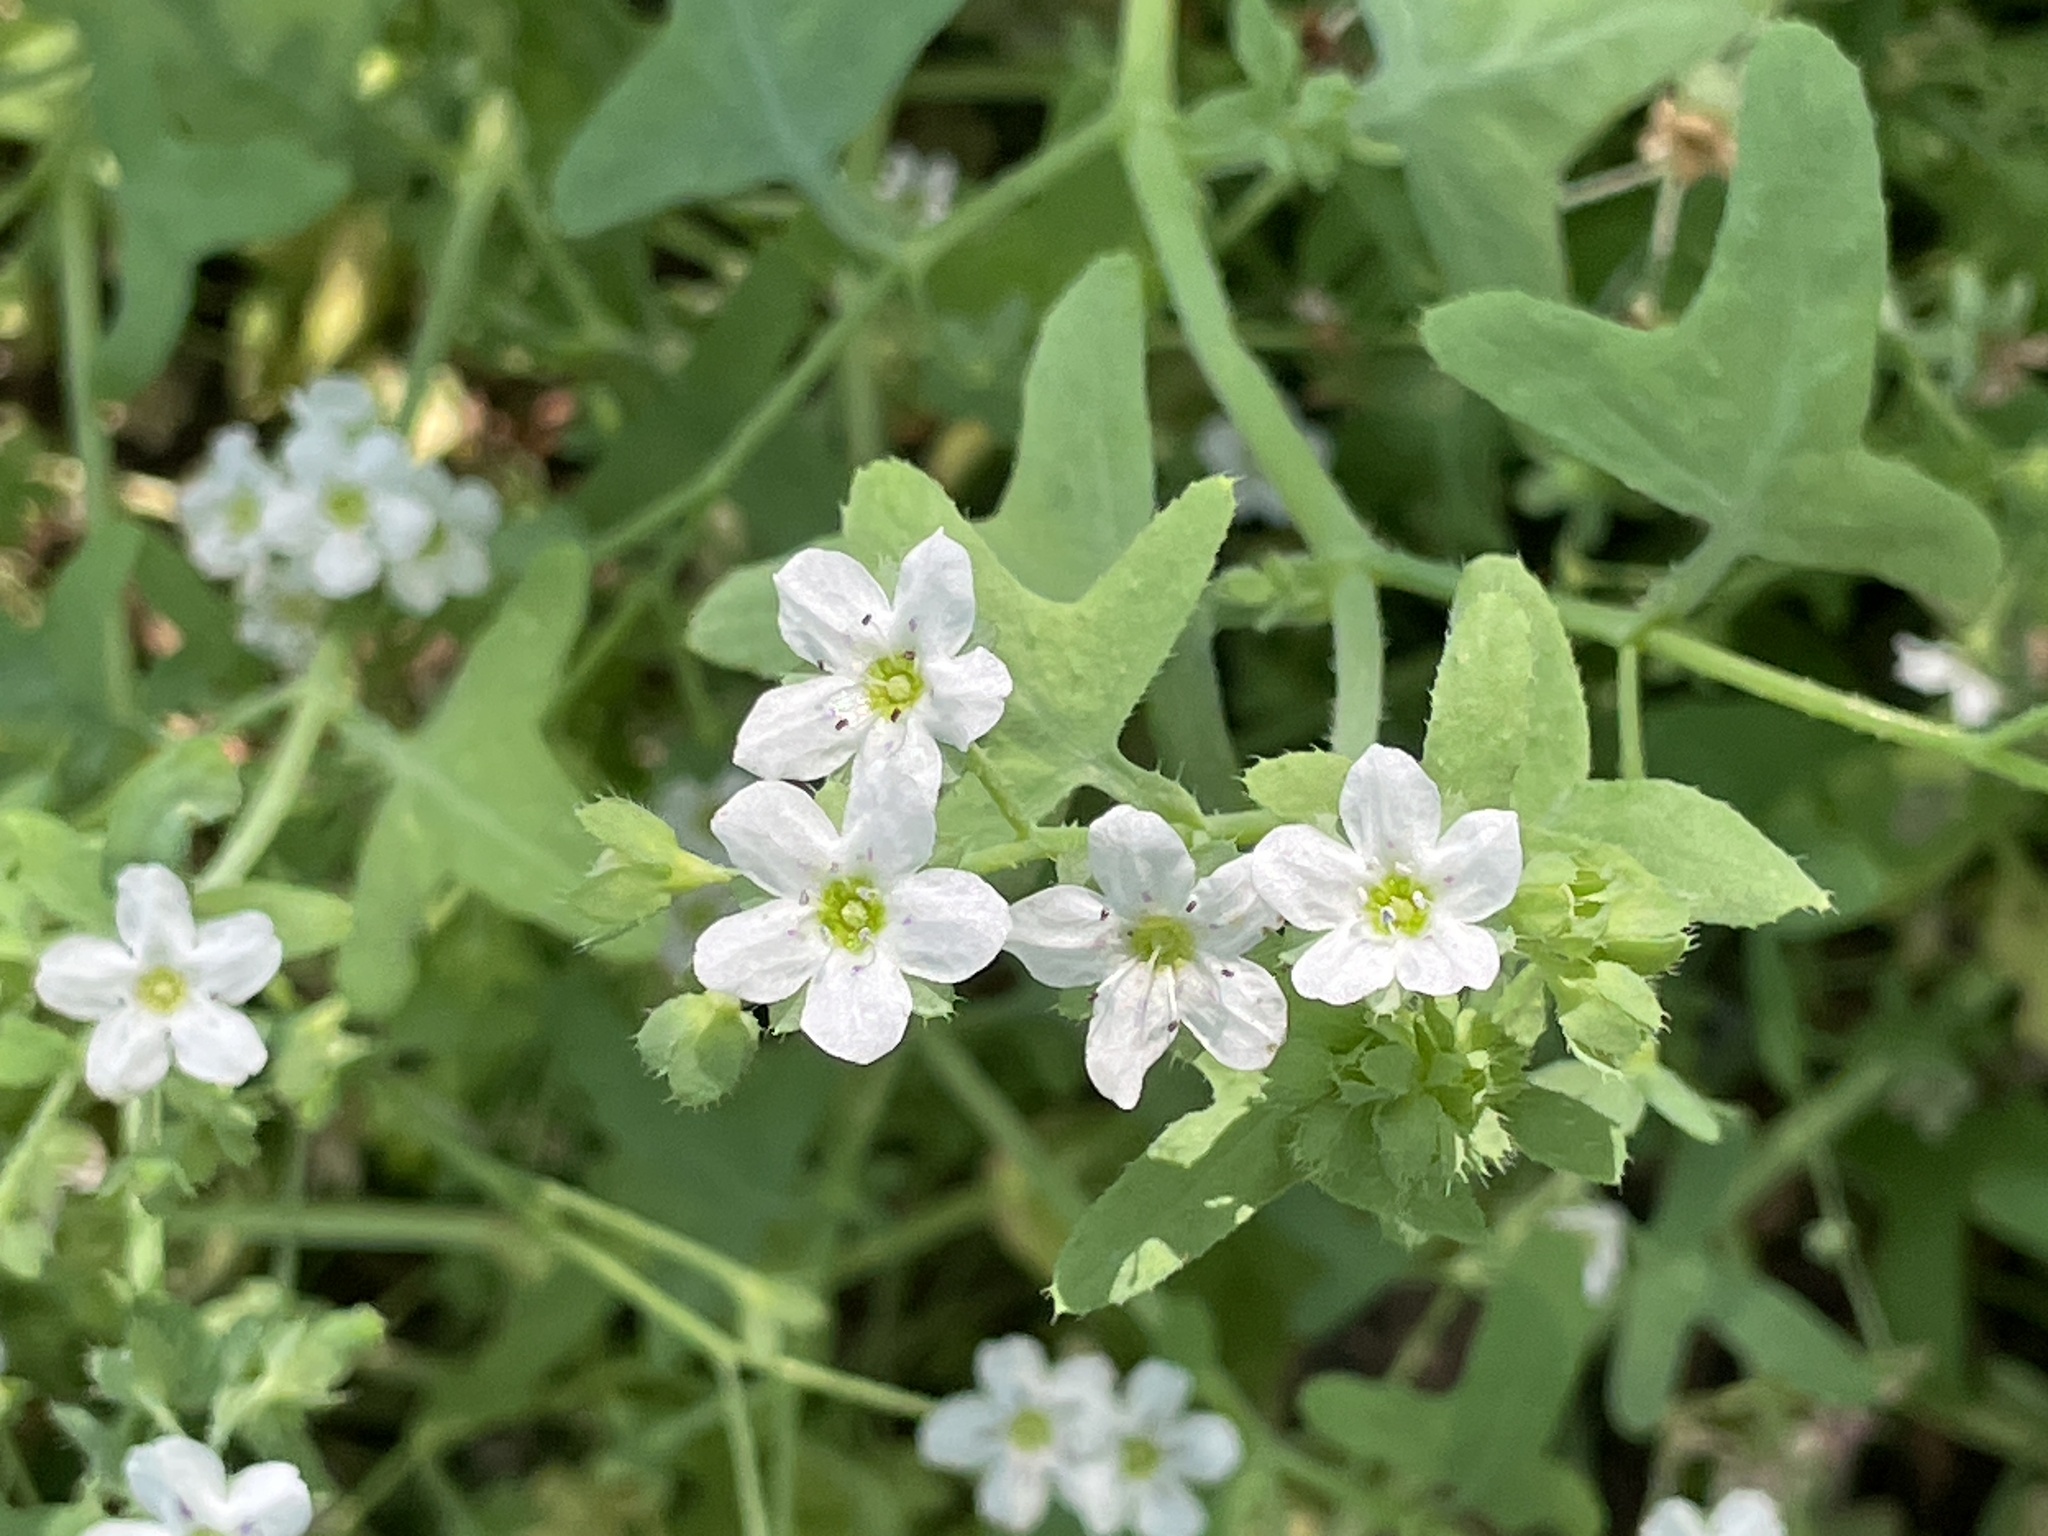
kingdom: Plantae
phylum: Tracheophyta
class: Magnoliopsida
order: Boraginales
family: Hydrophyllaceae
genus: Pholistoma
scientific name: Pholistoma membranaceum
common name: White fiesta-flower
